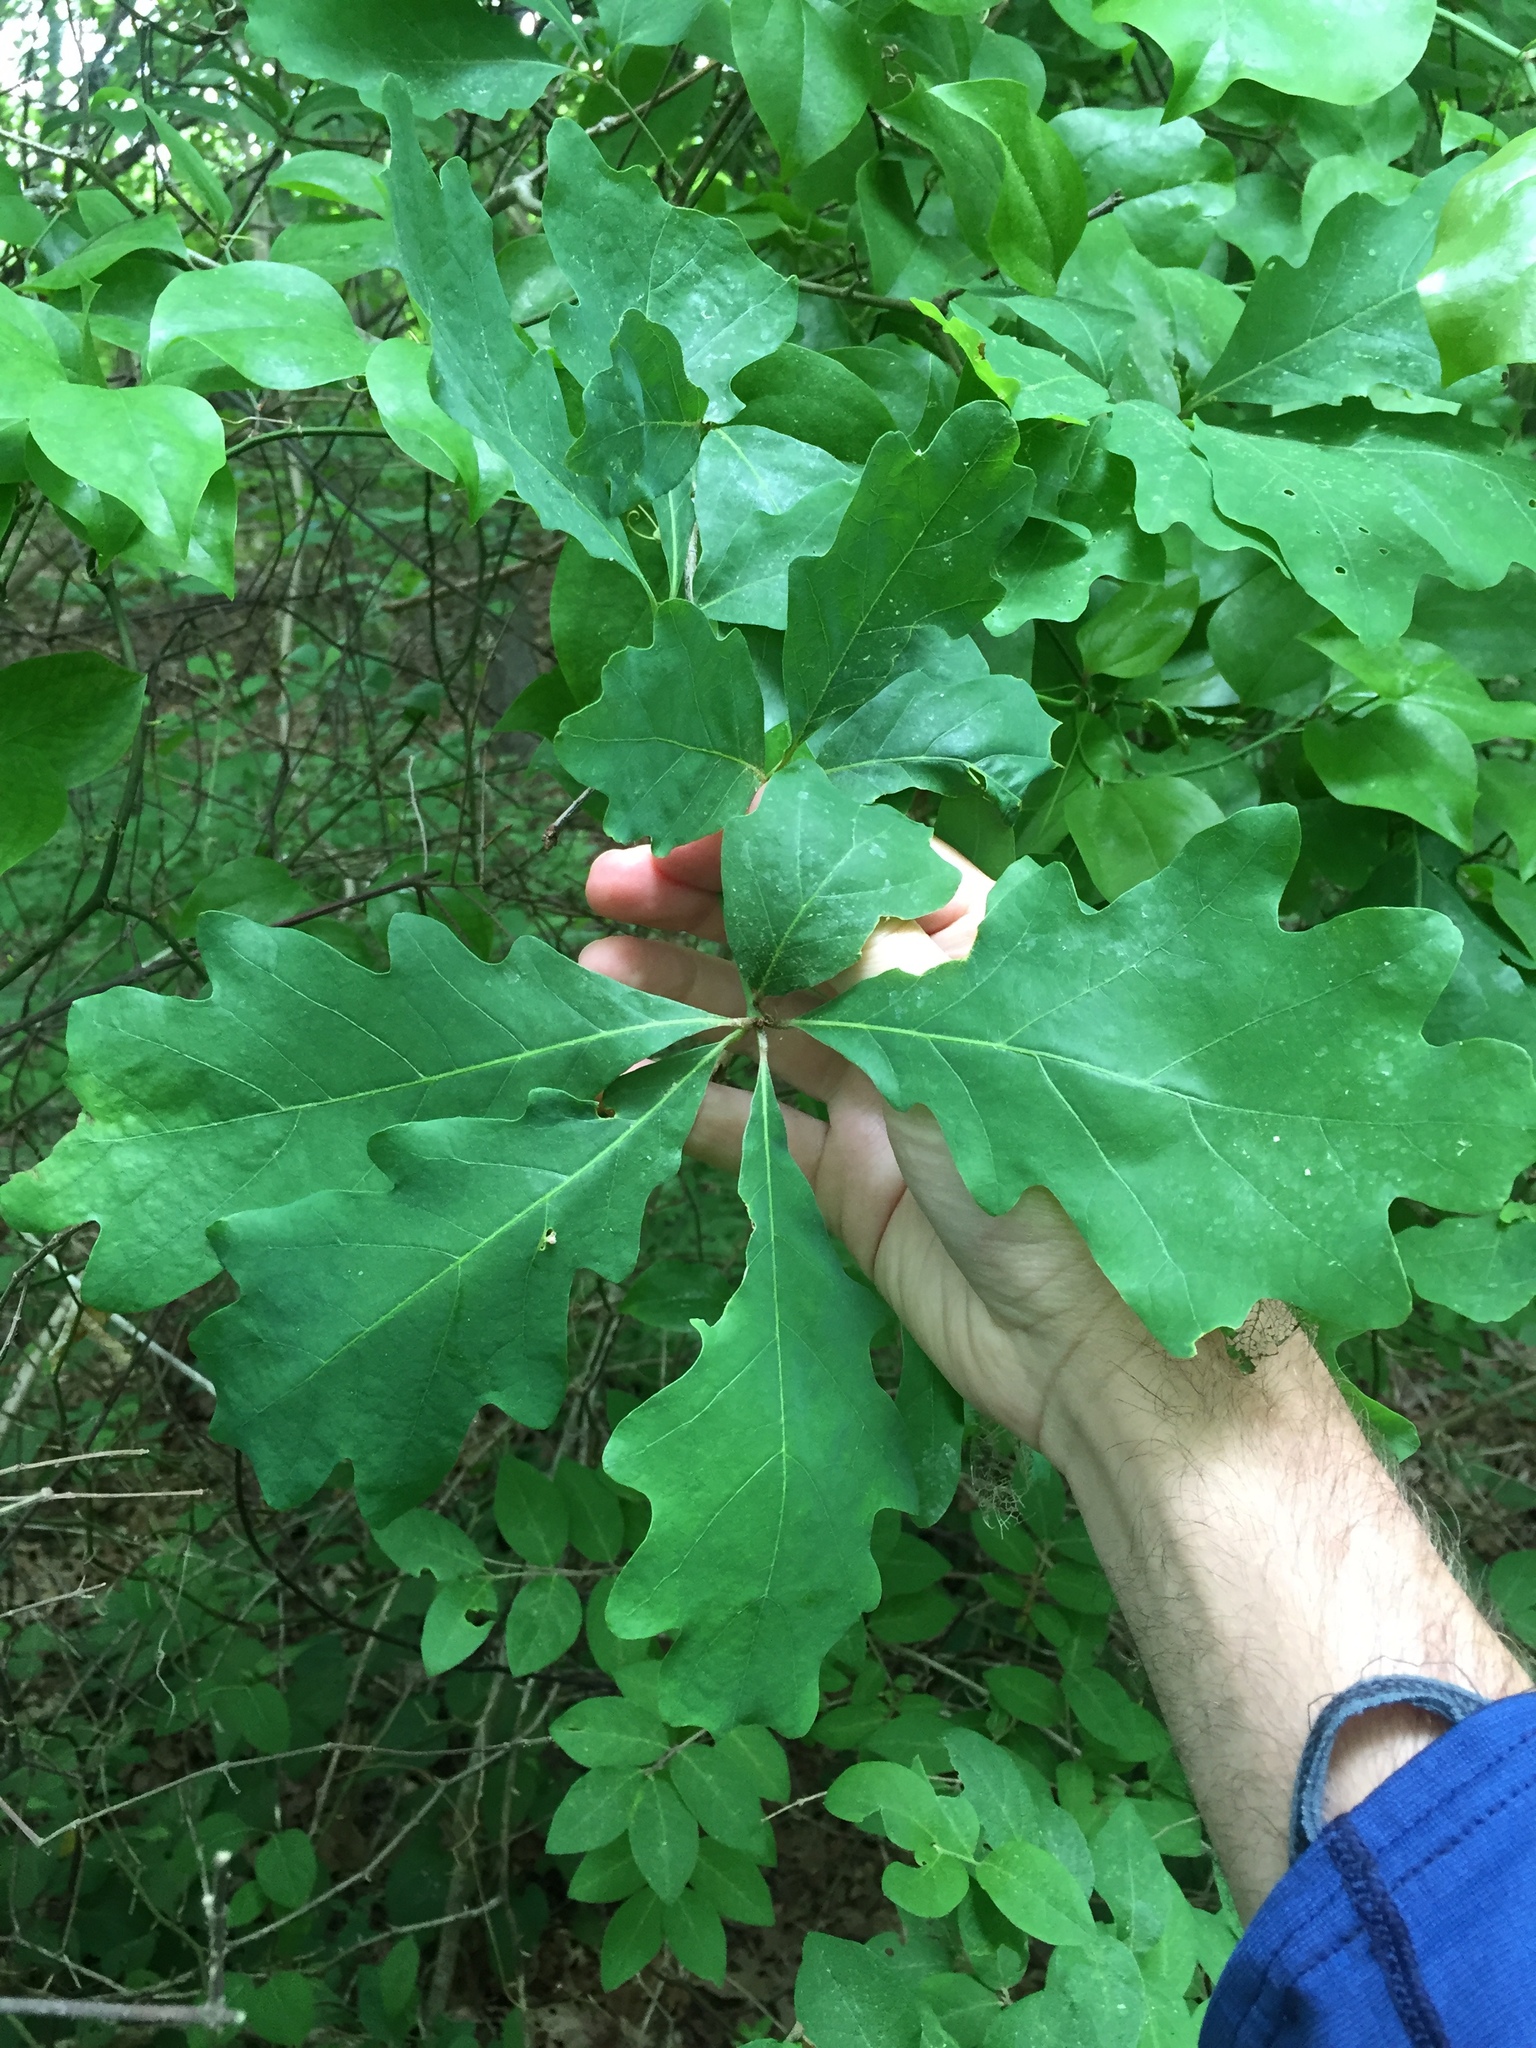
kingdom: Plantae
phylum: Tracheophyta
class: Magnoliopsida
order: Fagales
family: Fagaceae
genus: Quercus
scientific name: Quercus alba
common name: White oak
